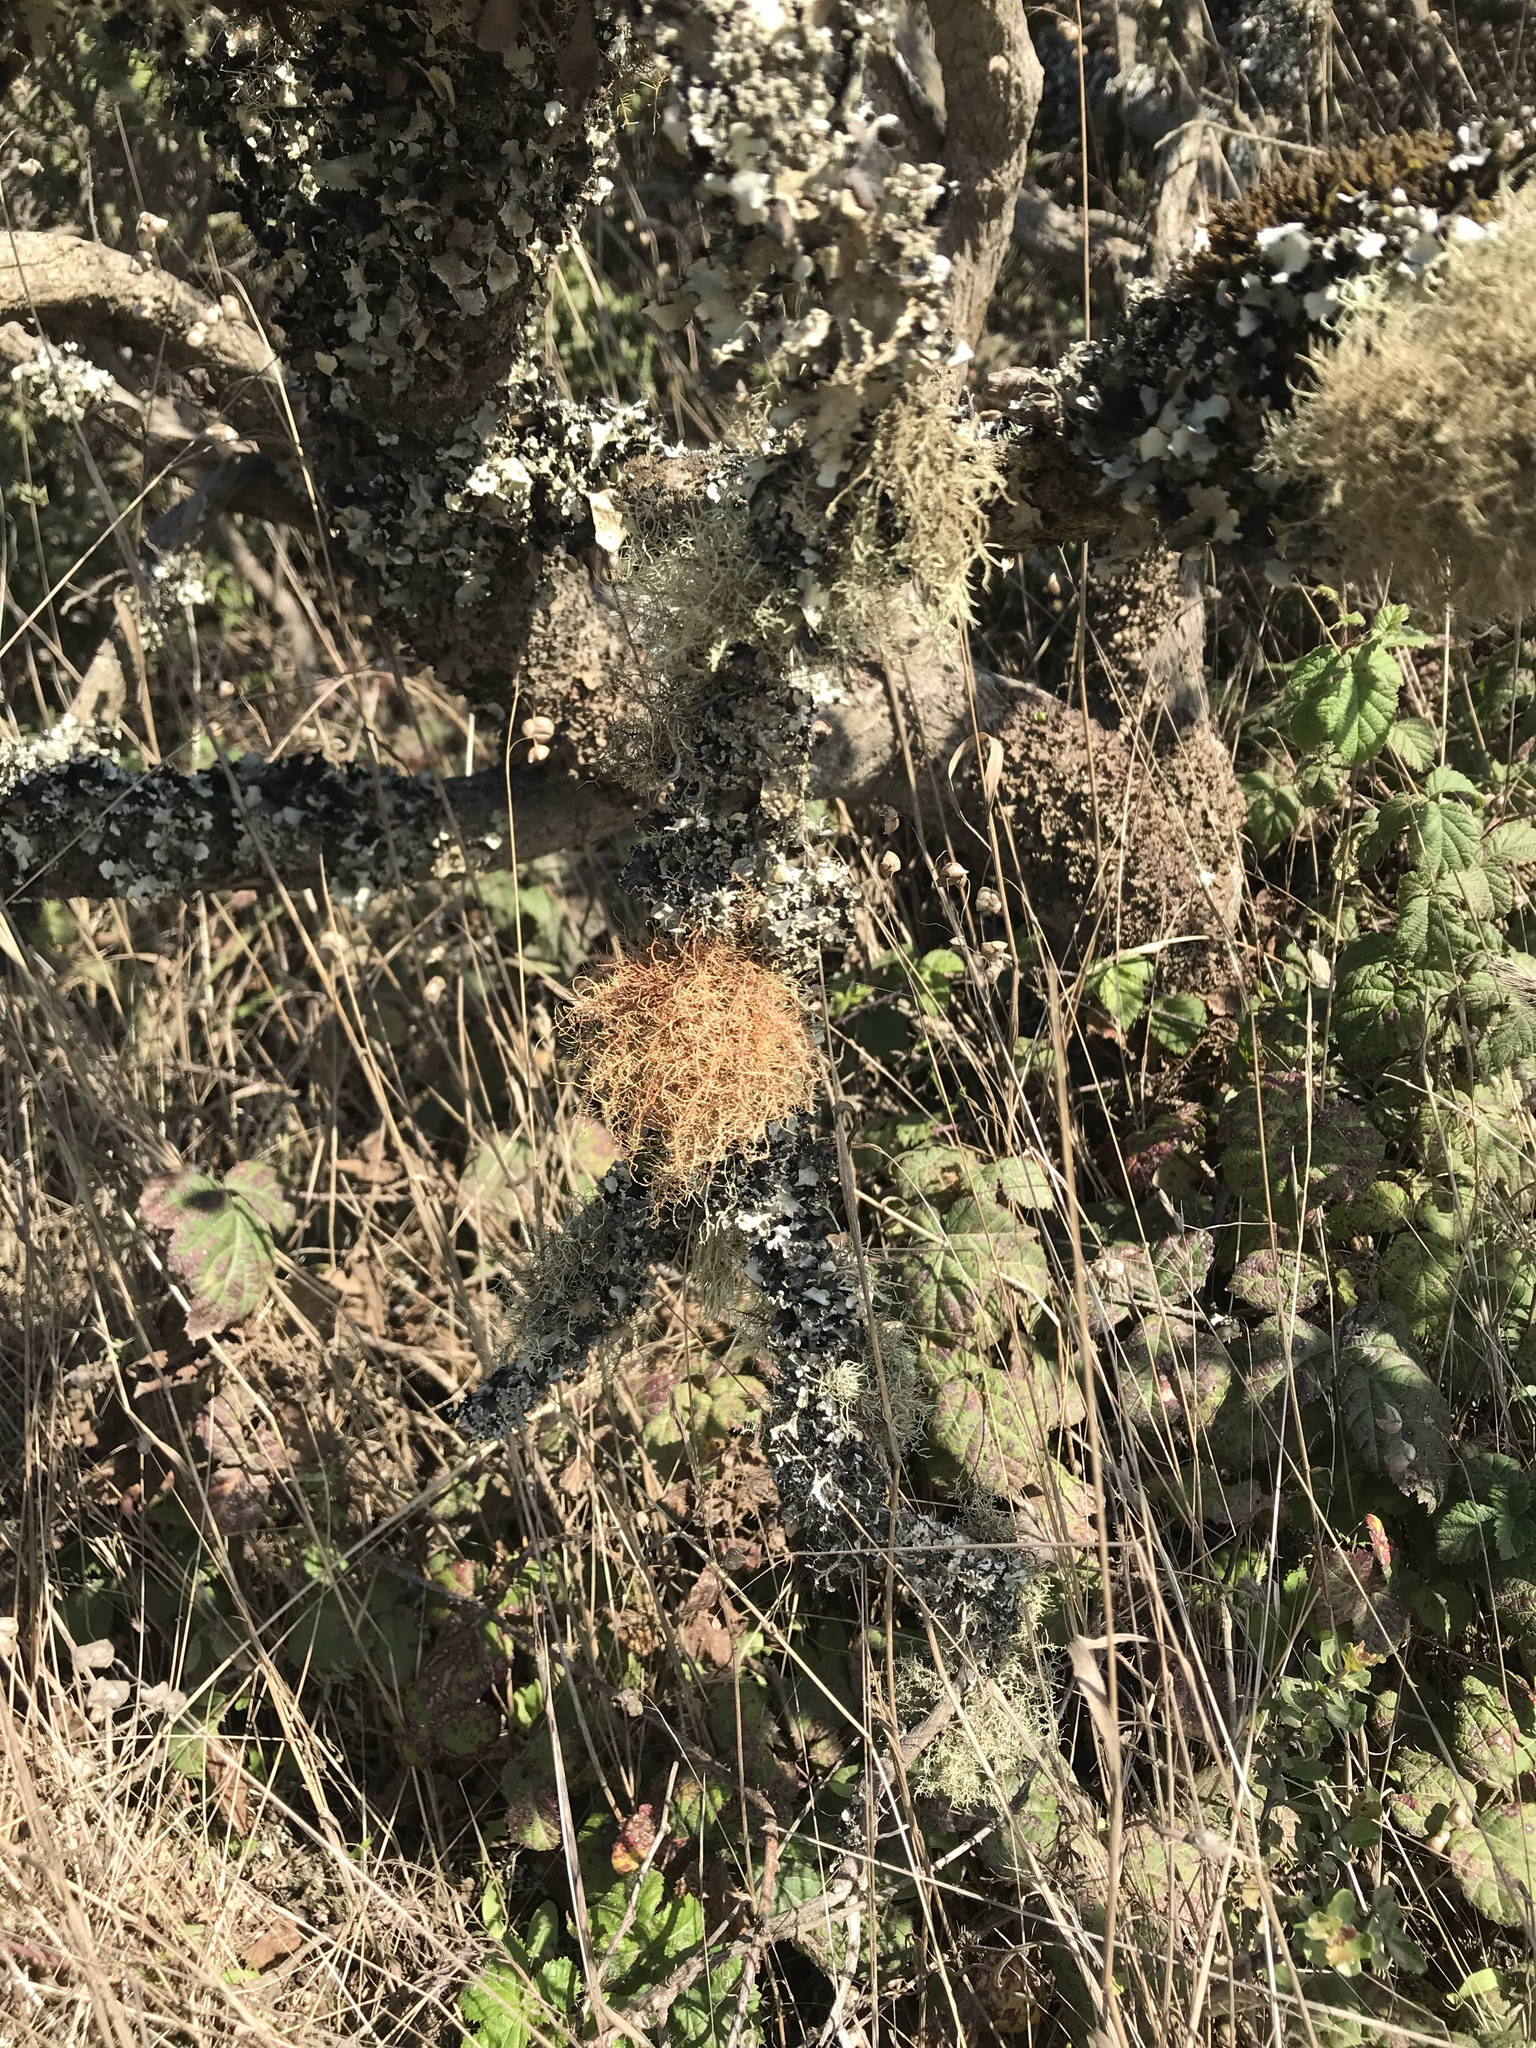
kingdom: Fungi
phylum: Ascomycota
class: Lecanoromycetes
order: Lecanorales
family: Parmeliaceae
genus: Usnea
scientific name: Usnea rubicunda
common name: Red beard lichen
